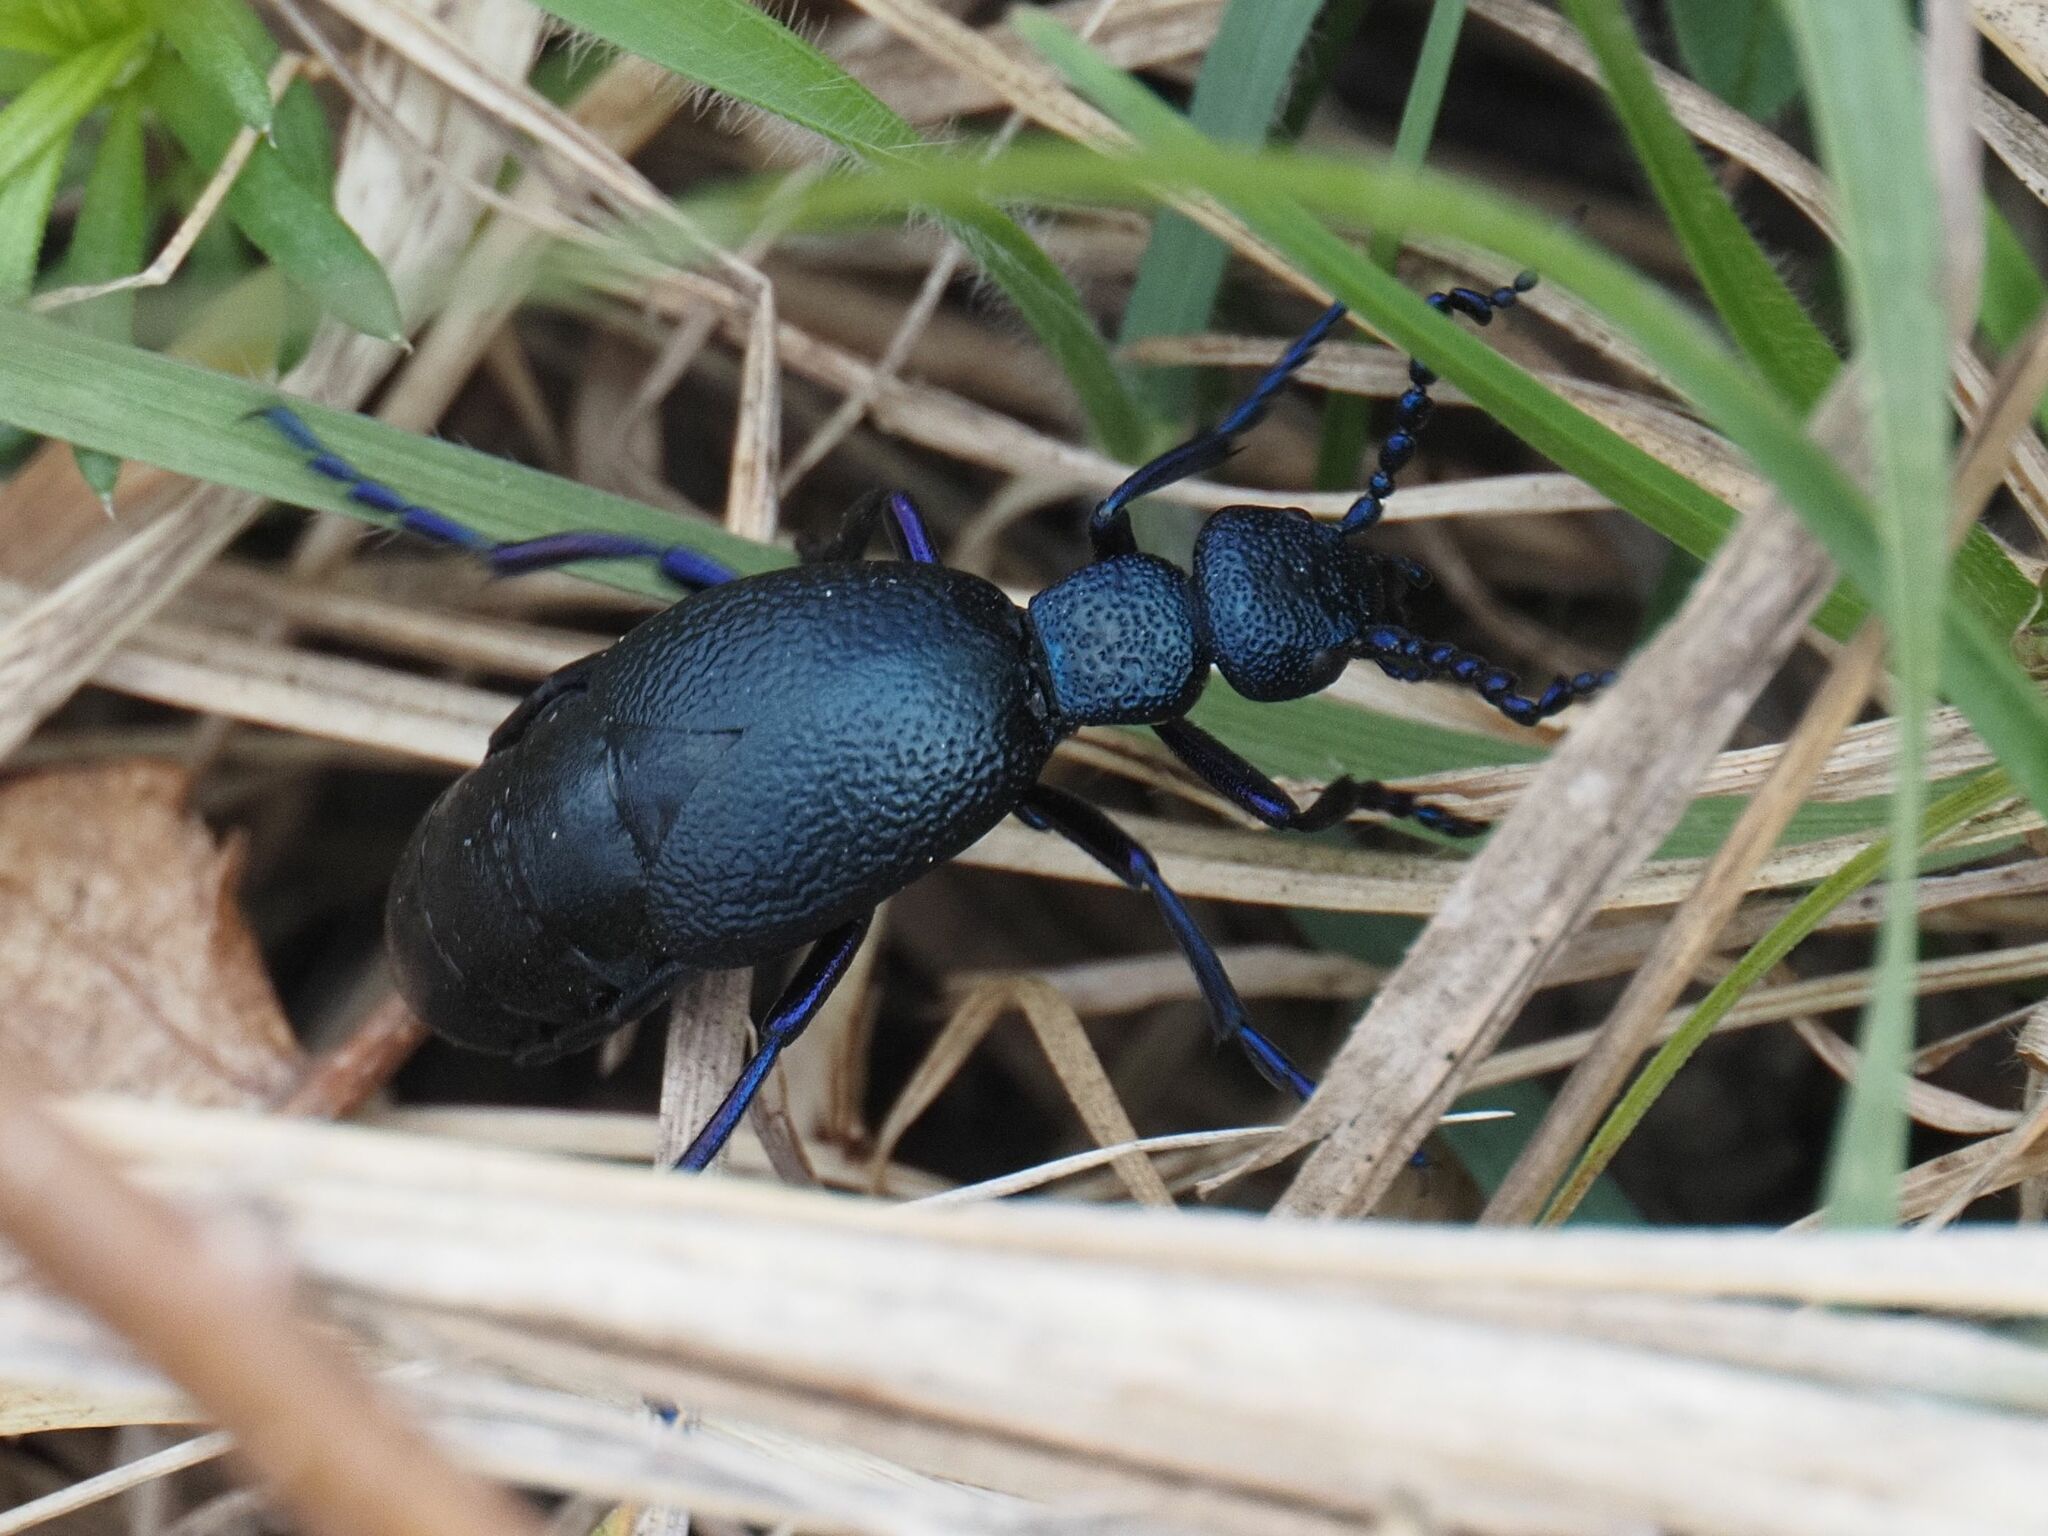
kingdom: Animalia
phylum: Arthropoda
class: Insecta
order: Coleoptera
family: Meloidae
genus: Meloe
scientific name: Meloe proscarabaeus
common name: Black oil-beetle
